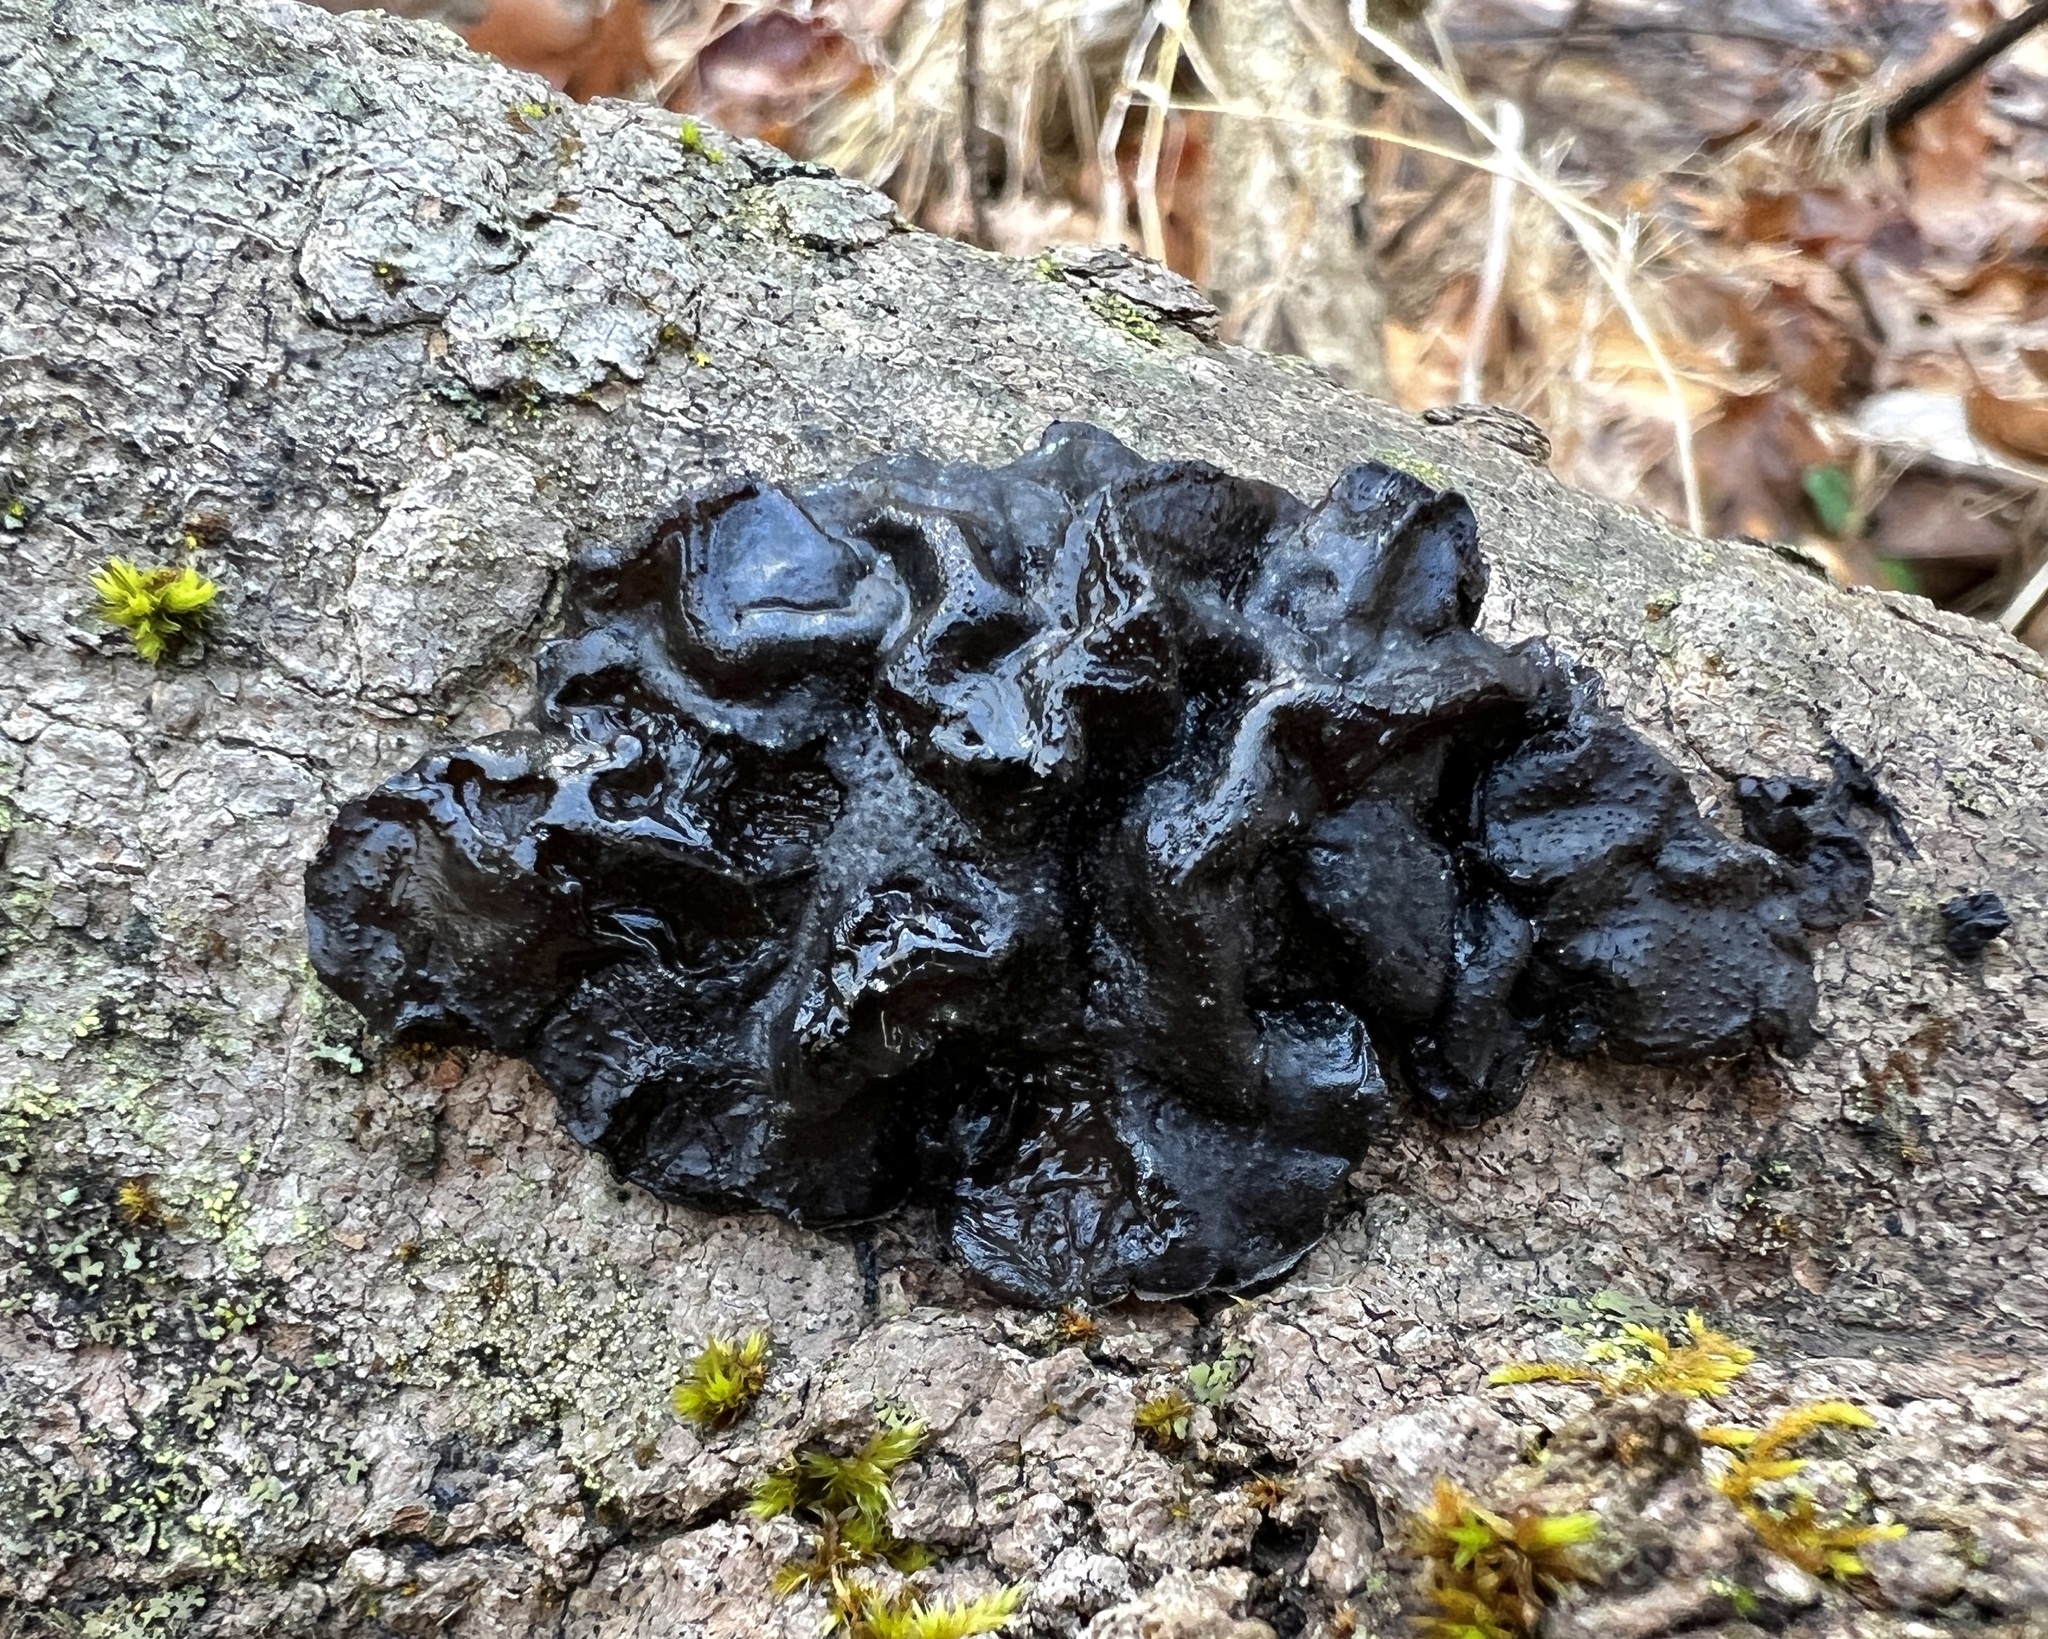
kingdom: Fungi
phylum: Basidiomycota
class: Agaricomycetes
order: Auriculariales
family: Auriculariaceae
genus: Exidia
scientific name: Exidia glandulosa
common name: Witches' butter
